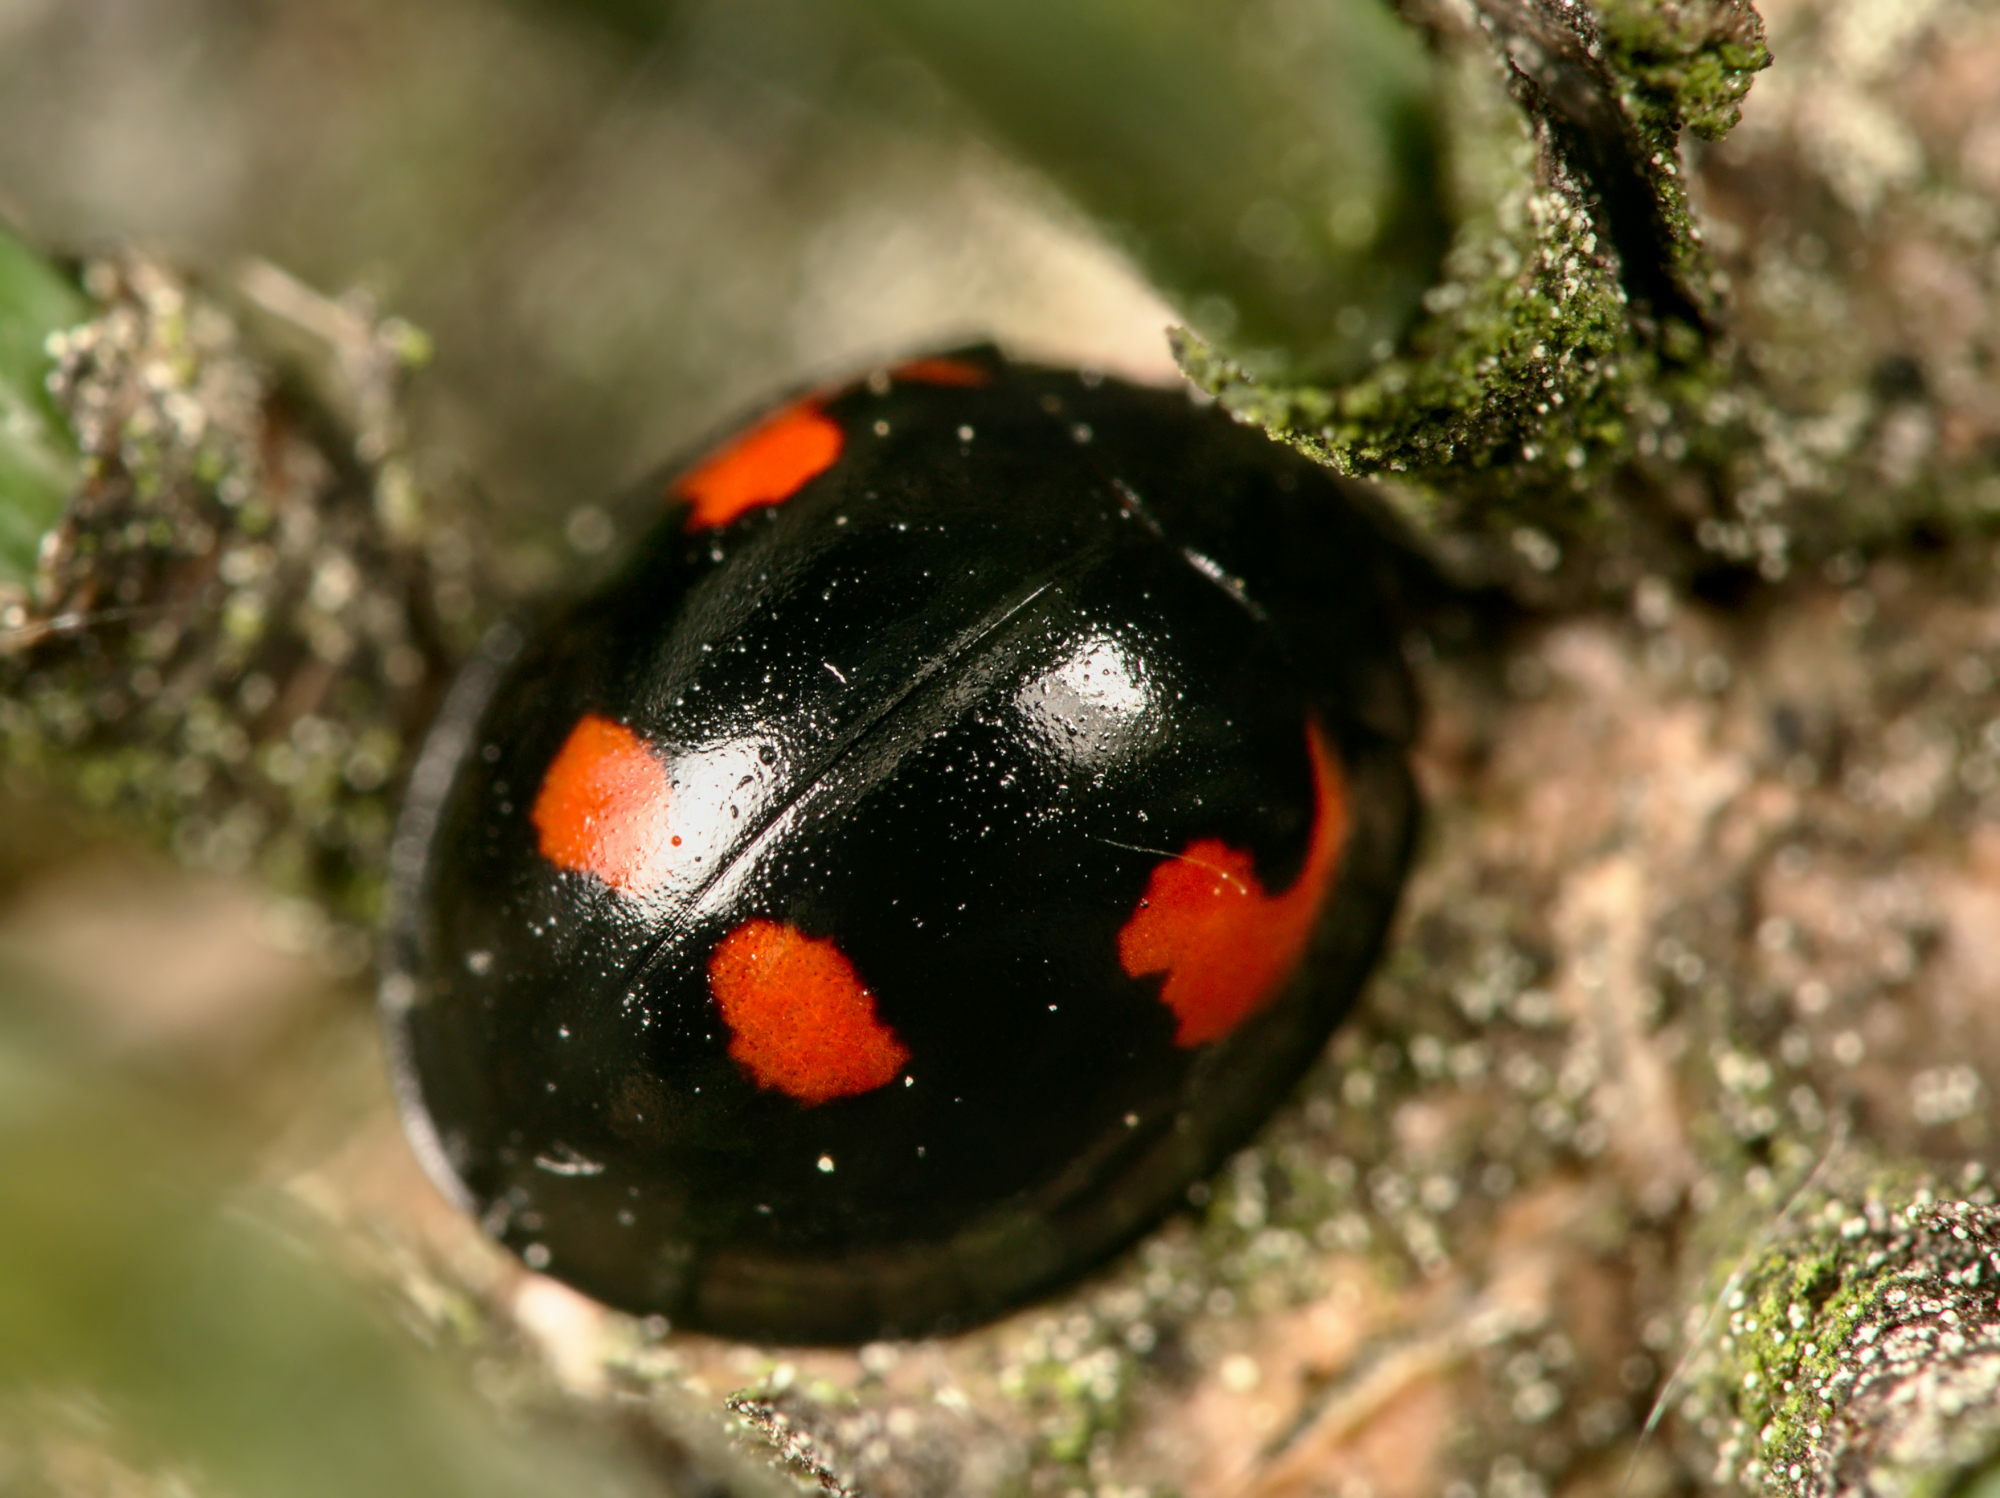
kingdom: Animalia
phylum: Arthropoda
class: Insecta
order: Coleoptera
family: Coccinellidae
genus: Brumus
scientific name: Brumus quadripustulatus
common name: Ladybird beetle
